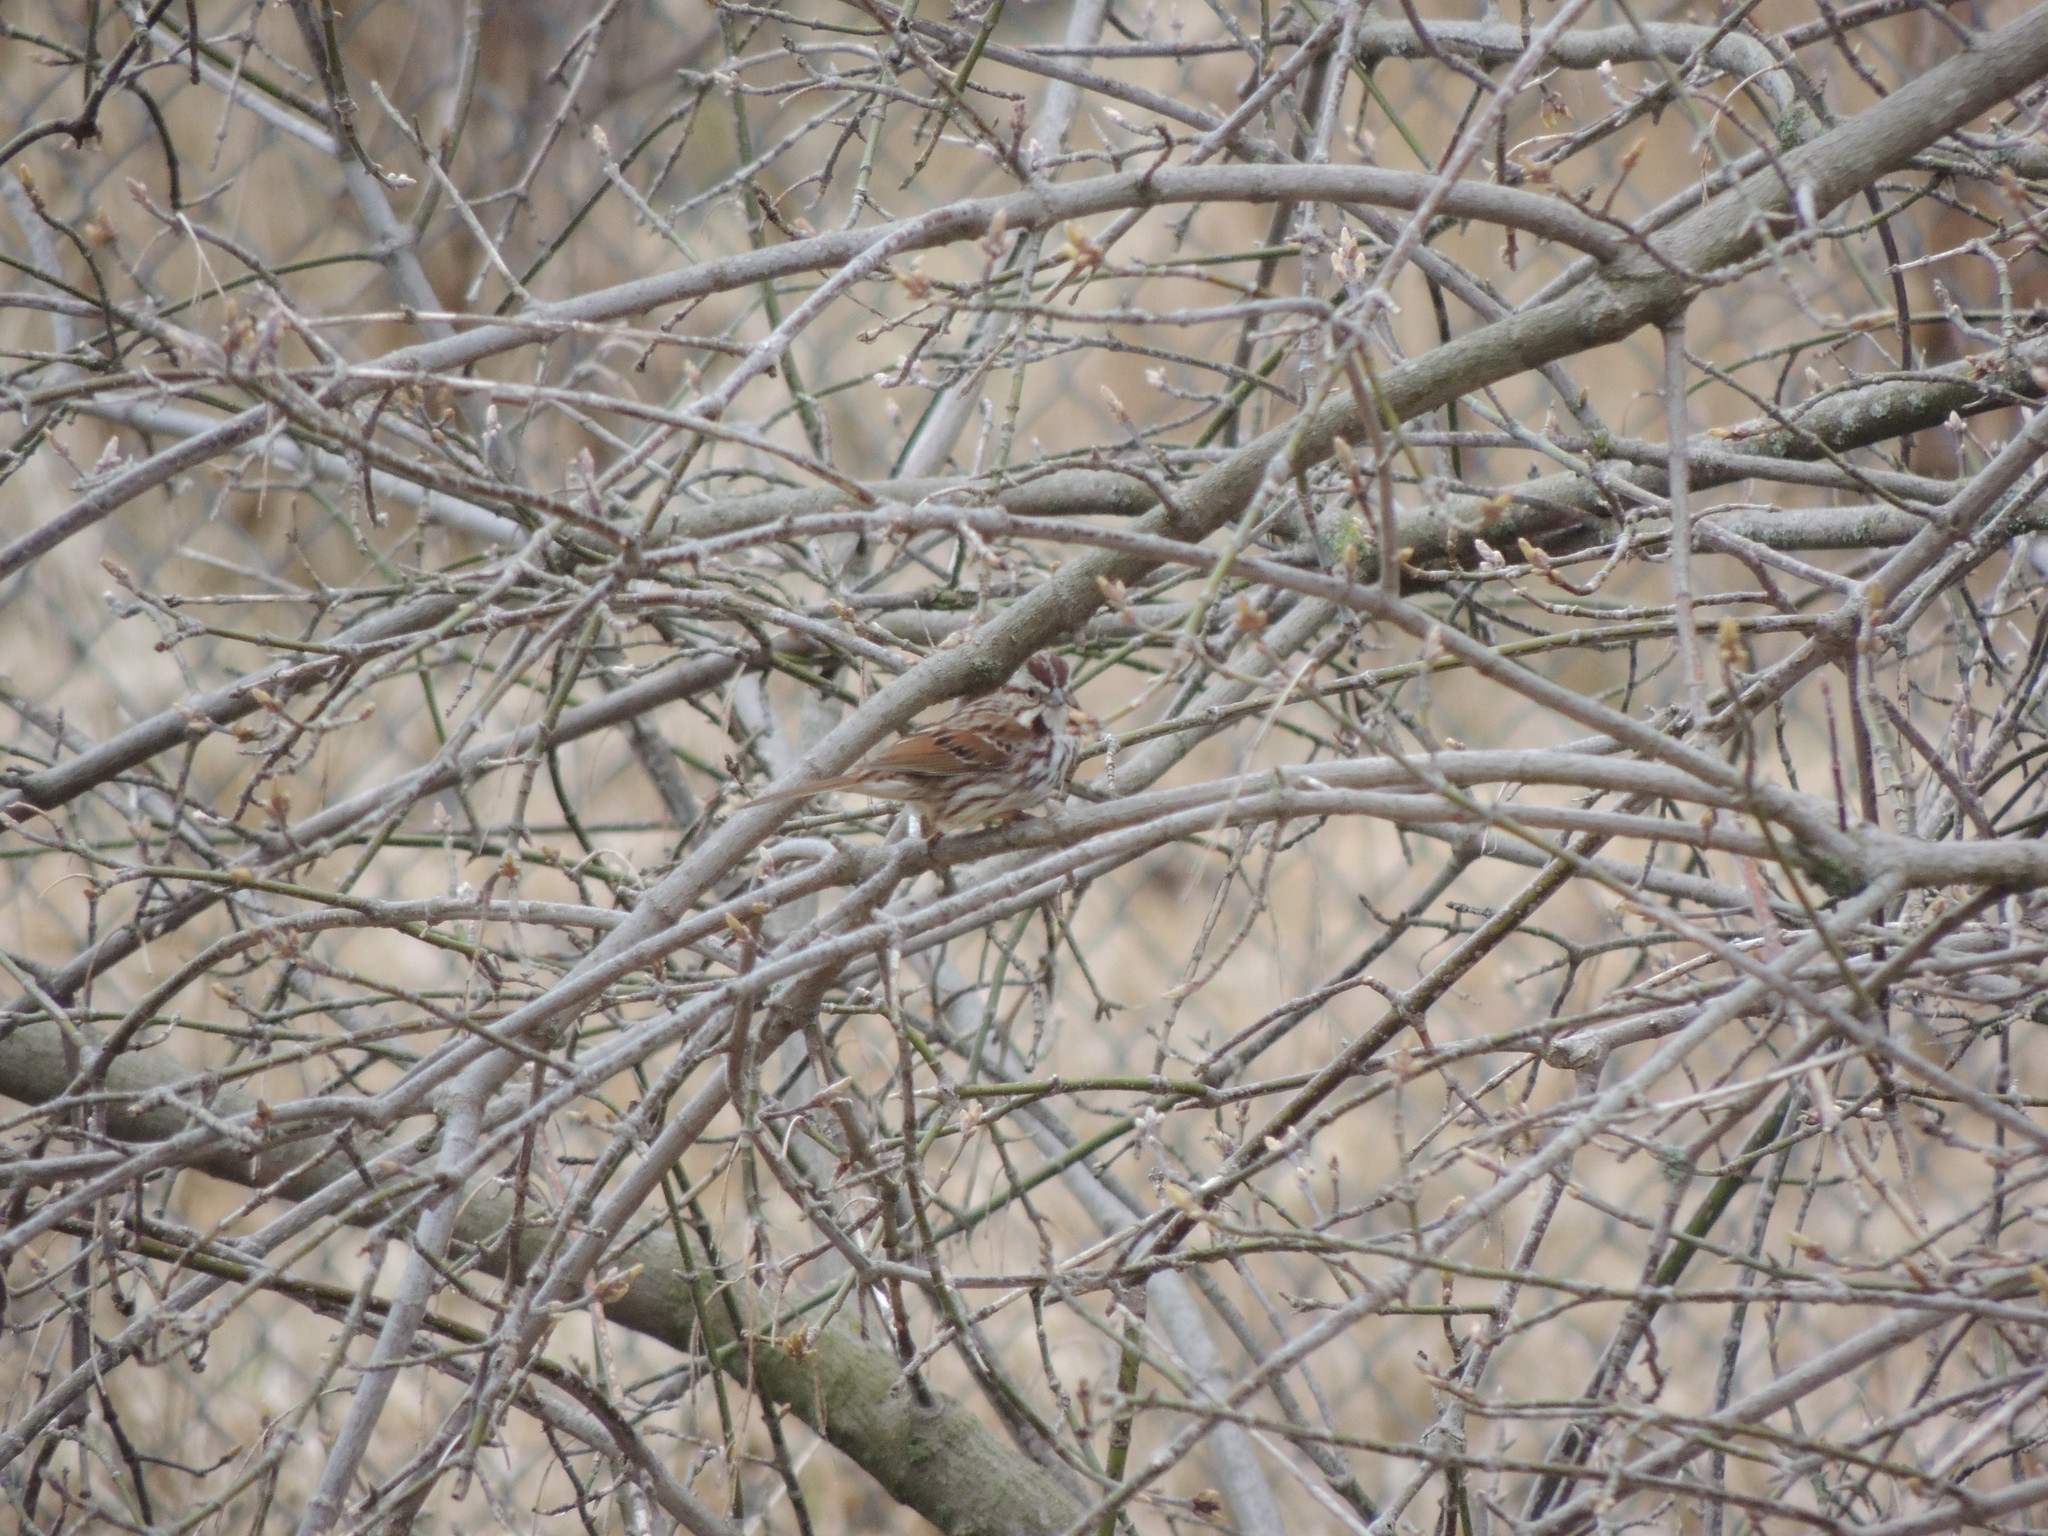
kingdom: Animalia
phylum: Chordata
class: Aves
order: Passeriformes
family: Passerellidae
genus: Melospiza
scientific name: Melospiza melodia
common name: Song sparrow
